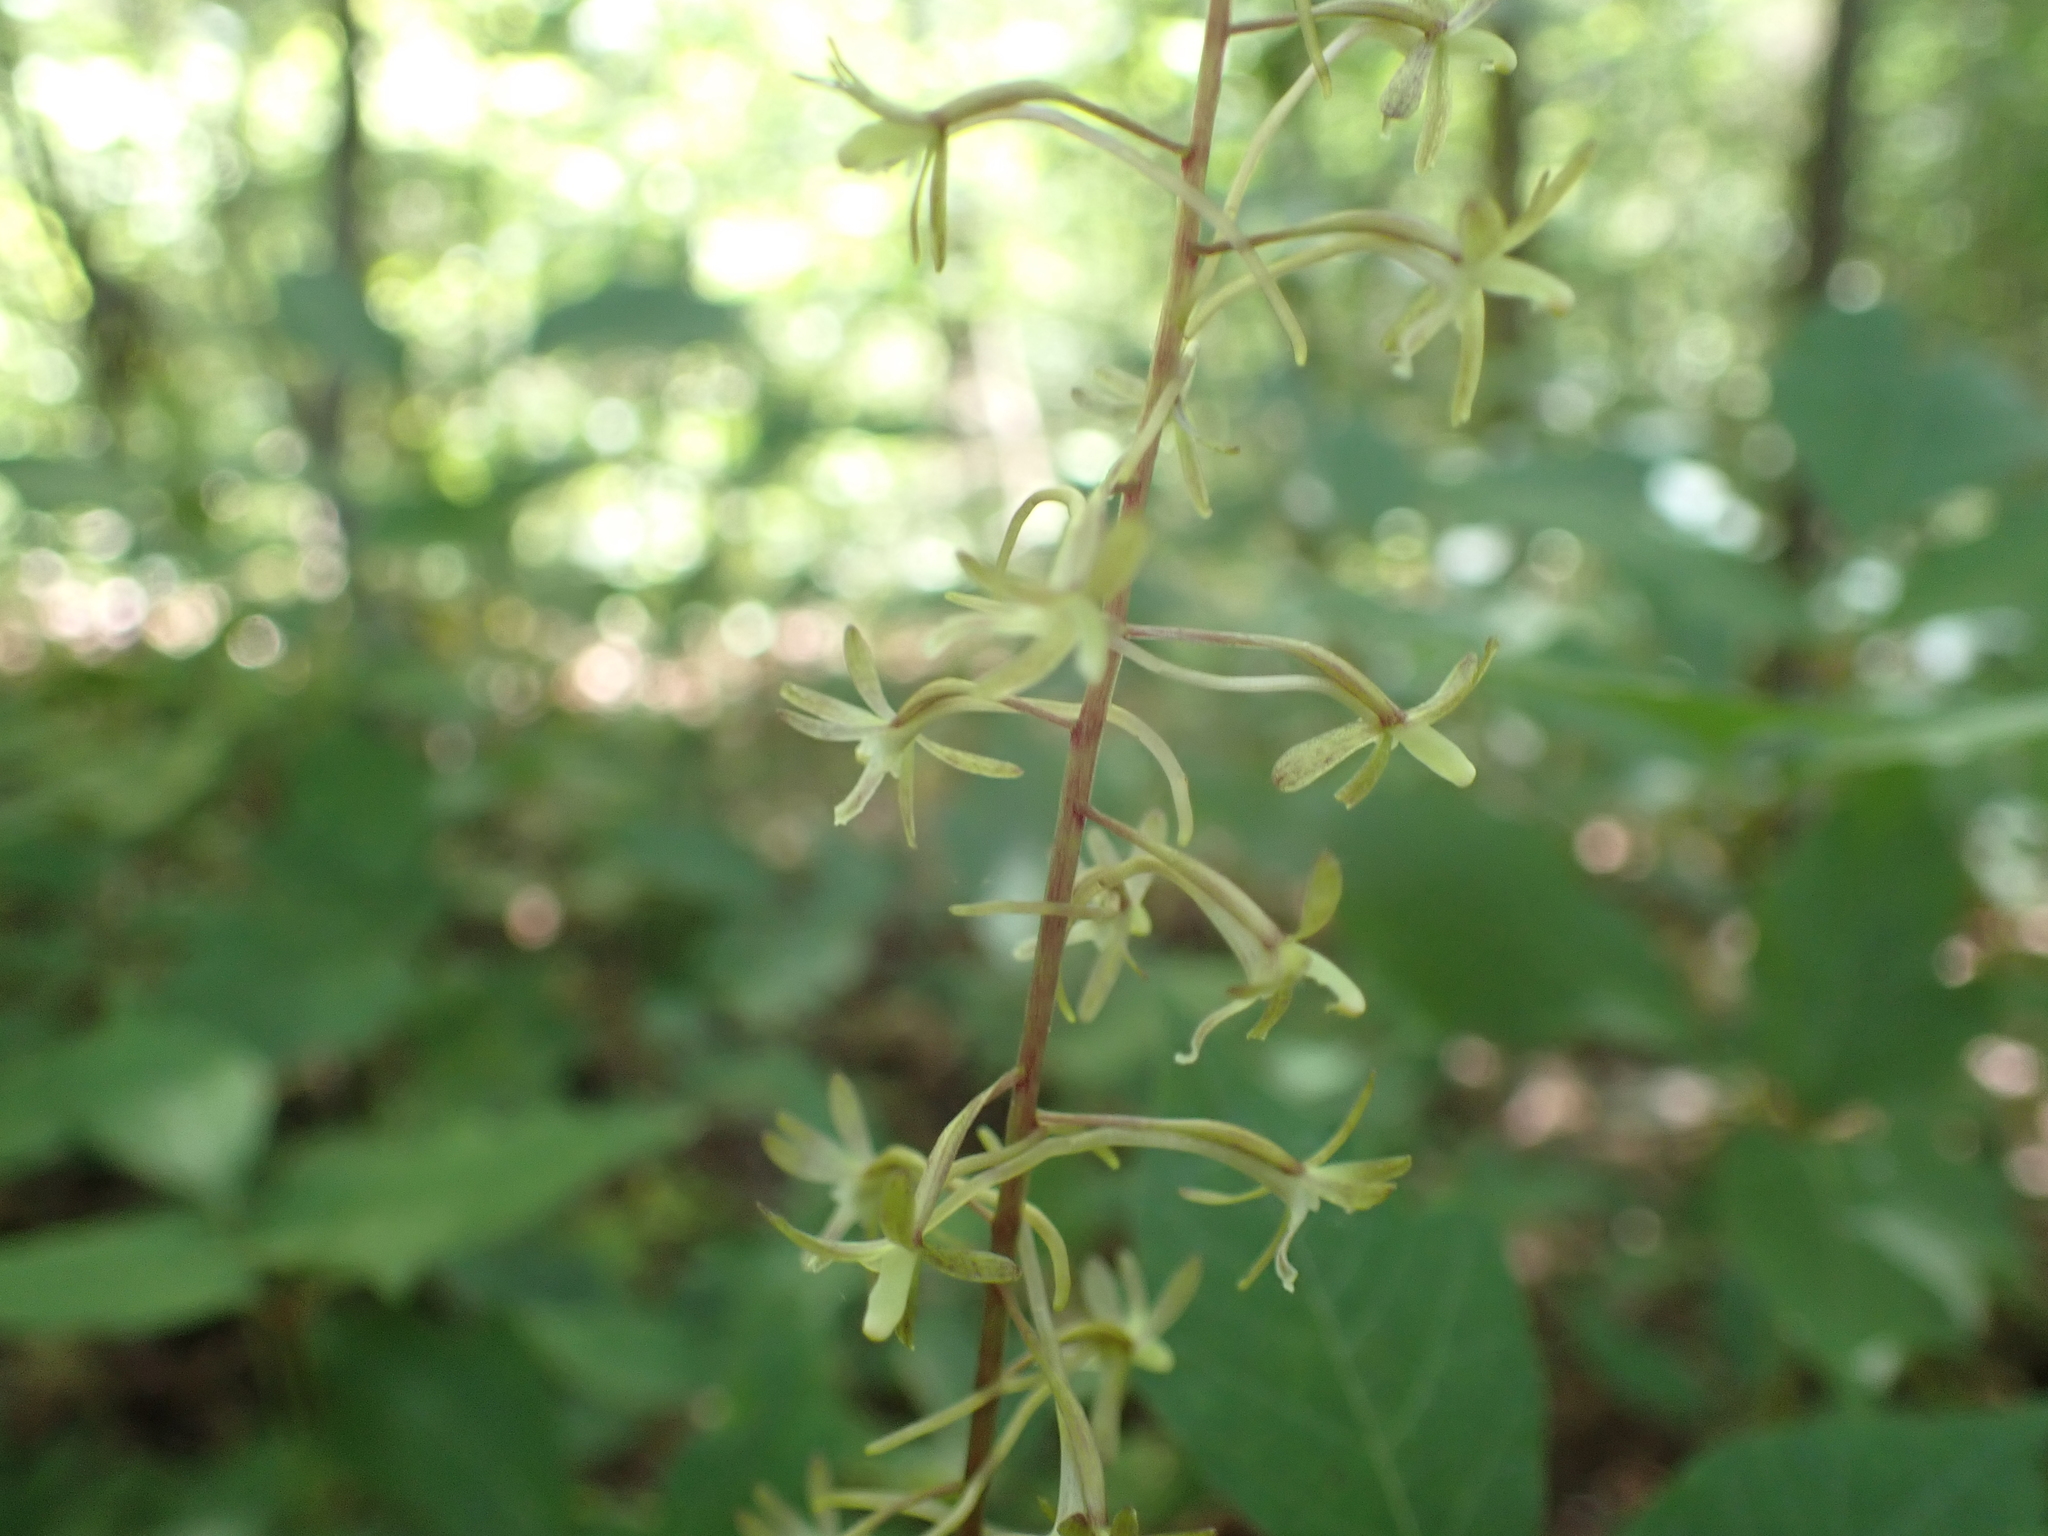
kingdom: Plantae
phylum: Tracheophyta
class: Liliopsida
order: Asparagales
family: Orchidaceae
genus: Tipularia
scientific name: Tipularia discolor
